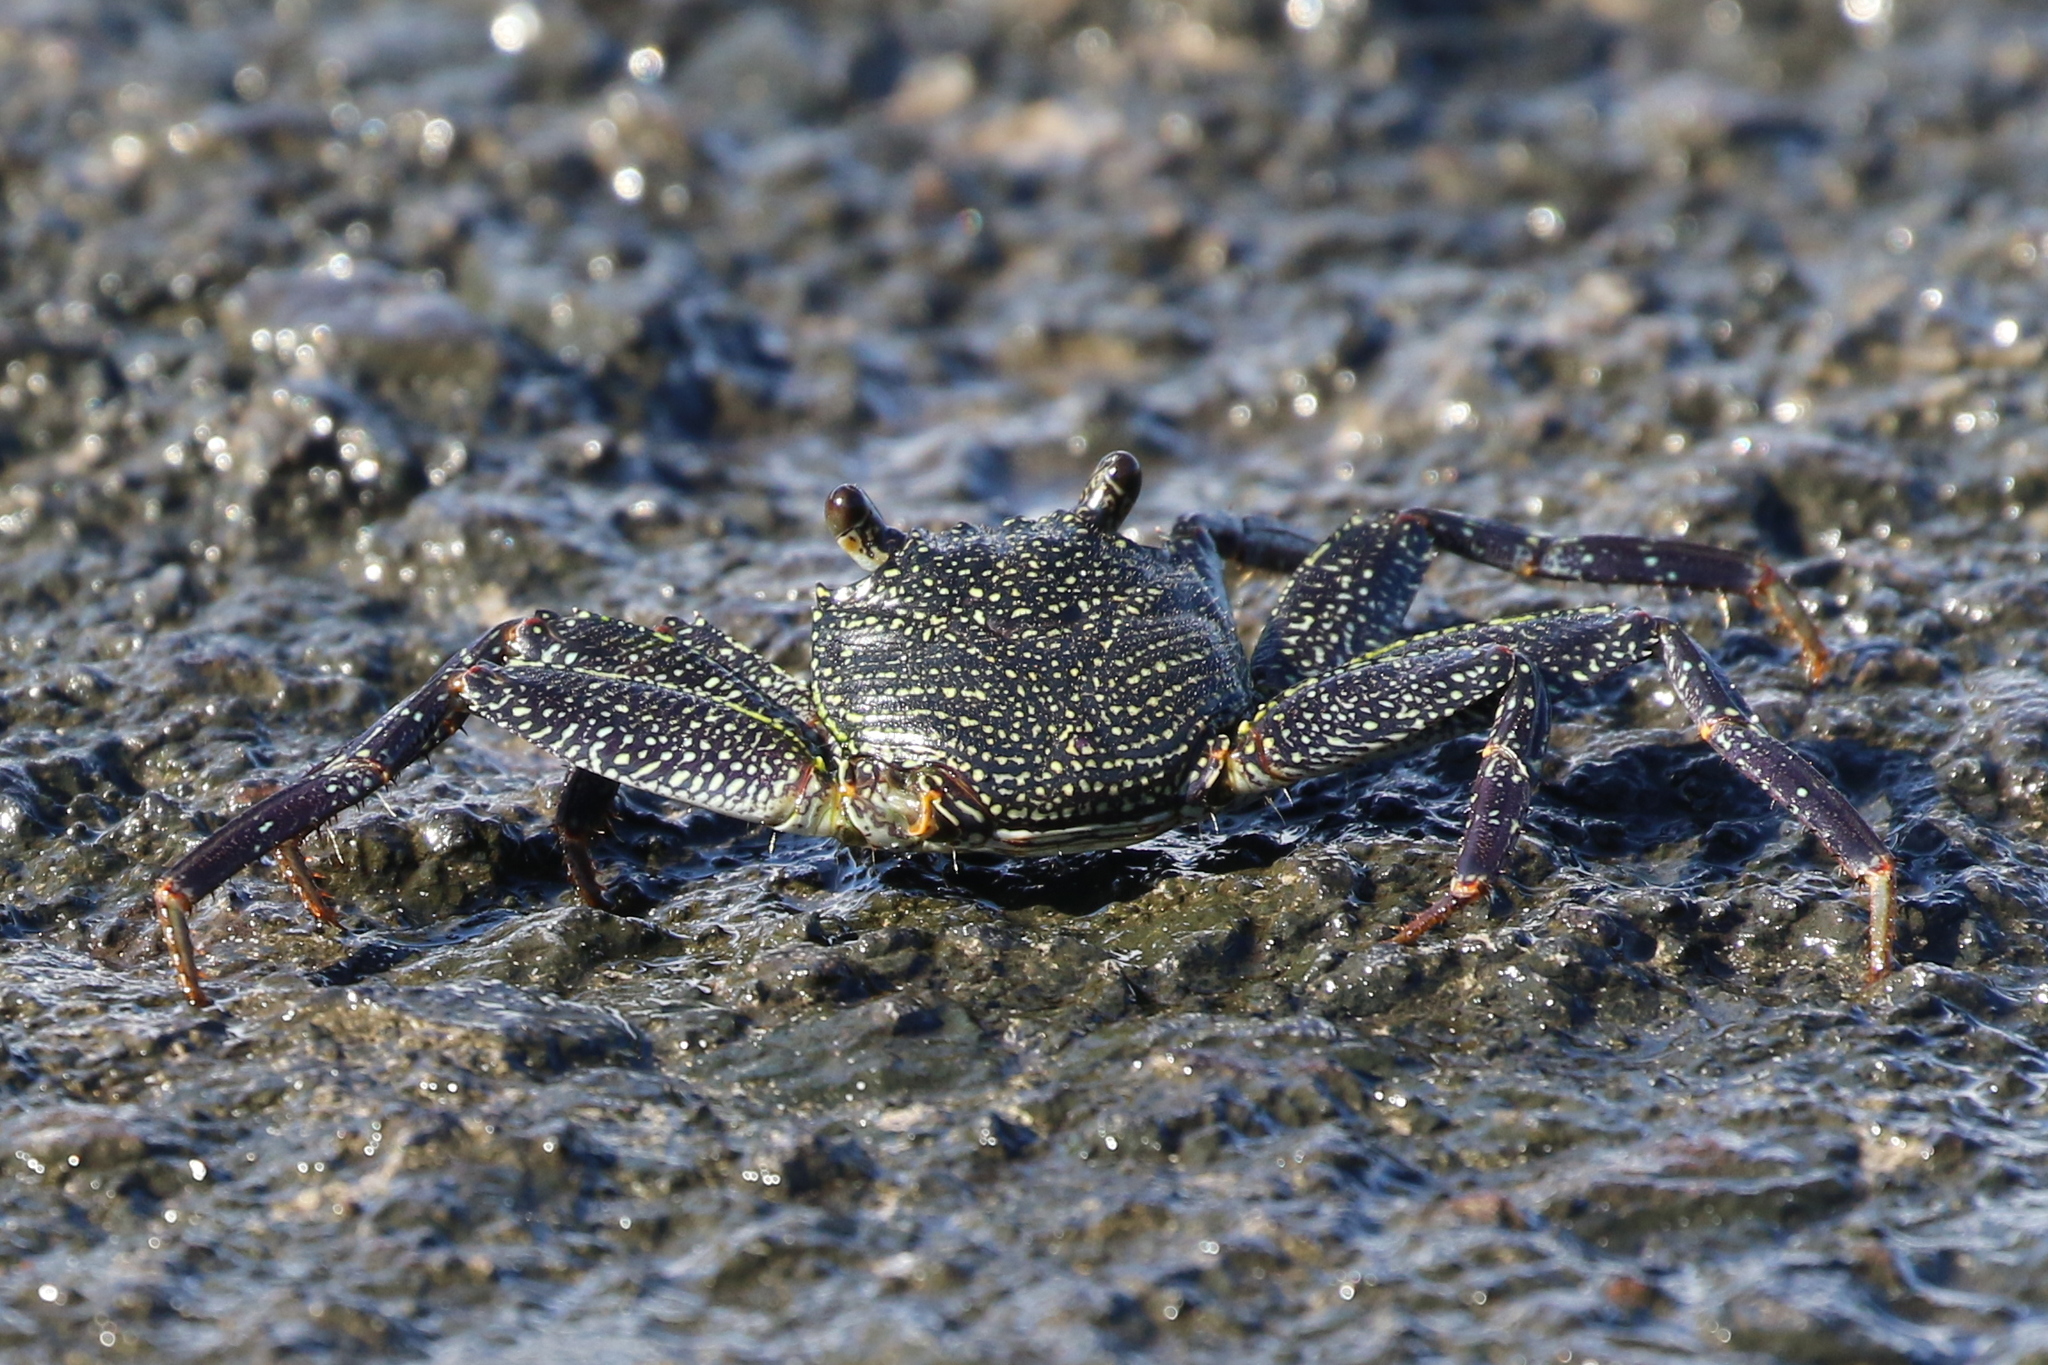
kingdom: Animalia
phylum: Arthropoda
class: Malacostraca
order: Decapoda
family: Grapsidae
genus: Grapsus
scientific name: Grapsus tenuicrustatus
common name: Natal lightfoot crab
